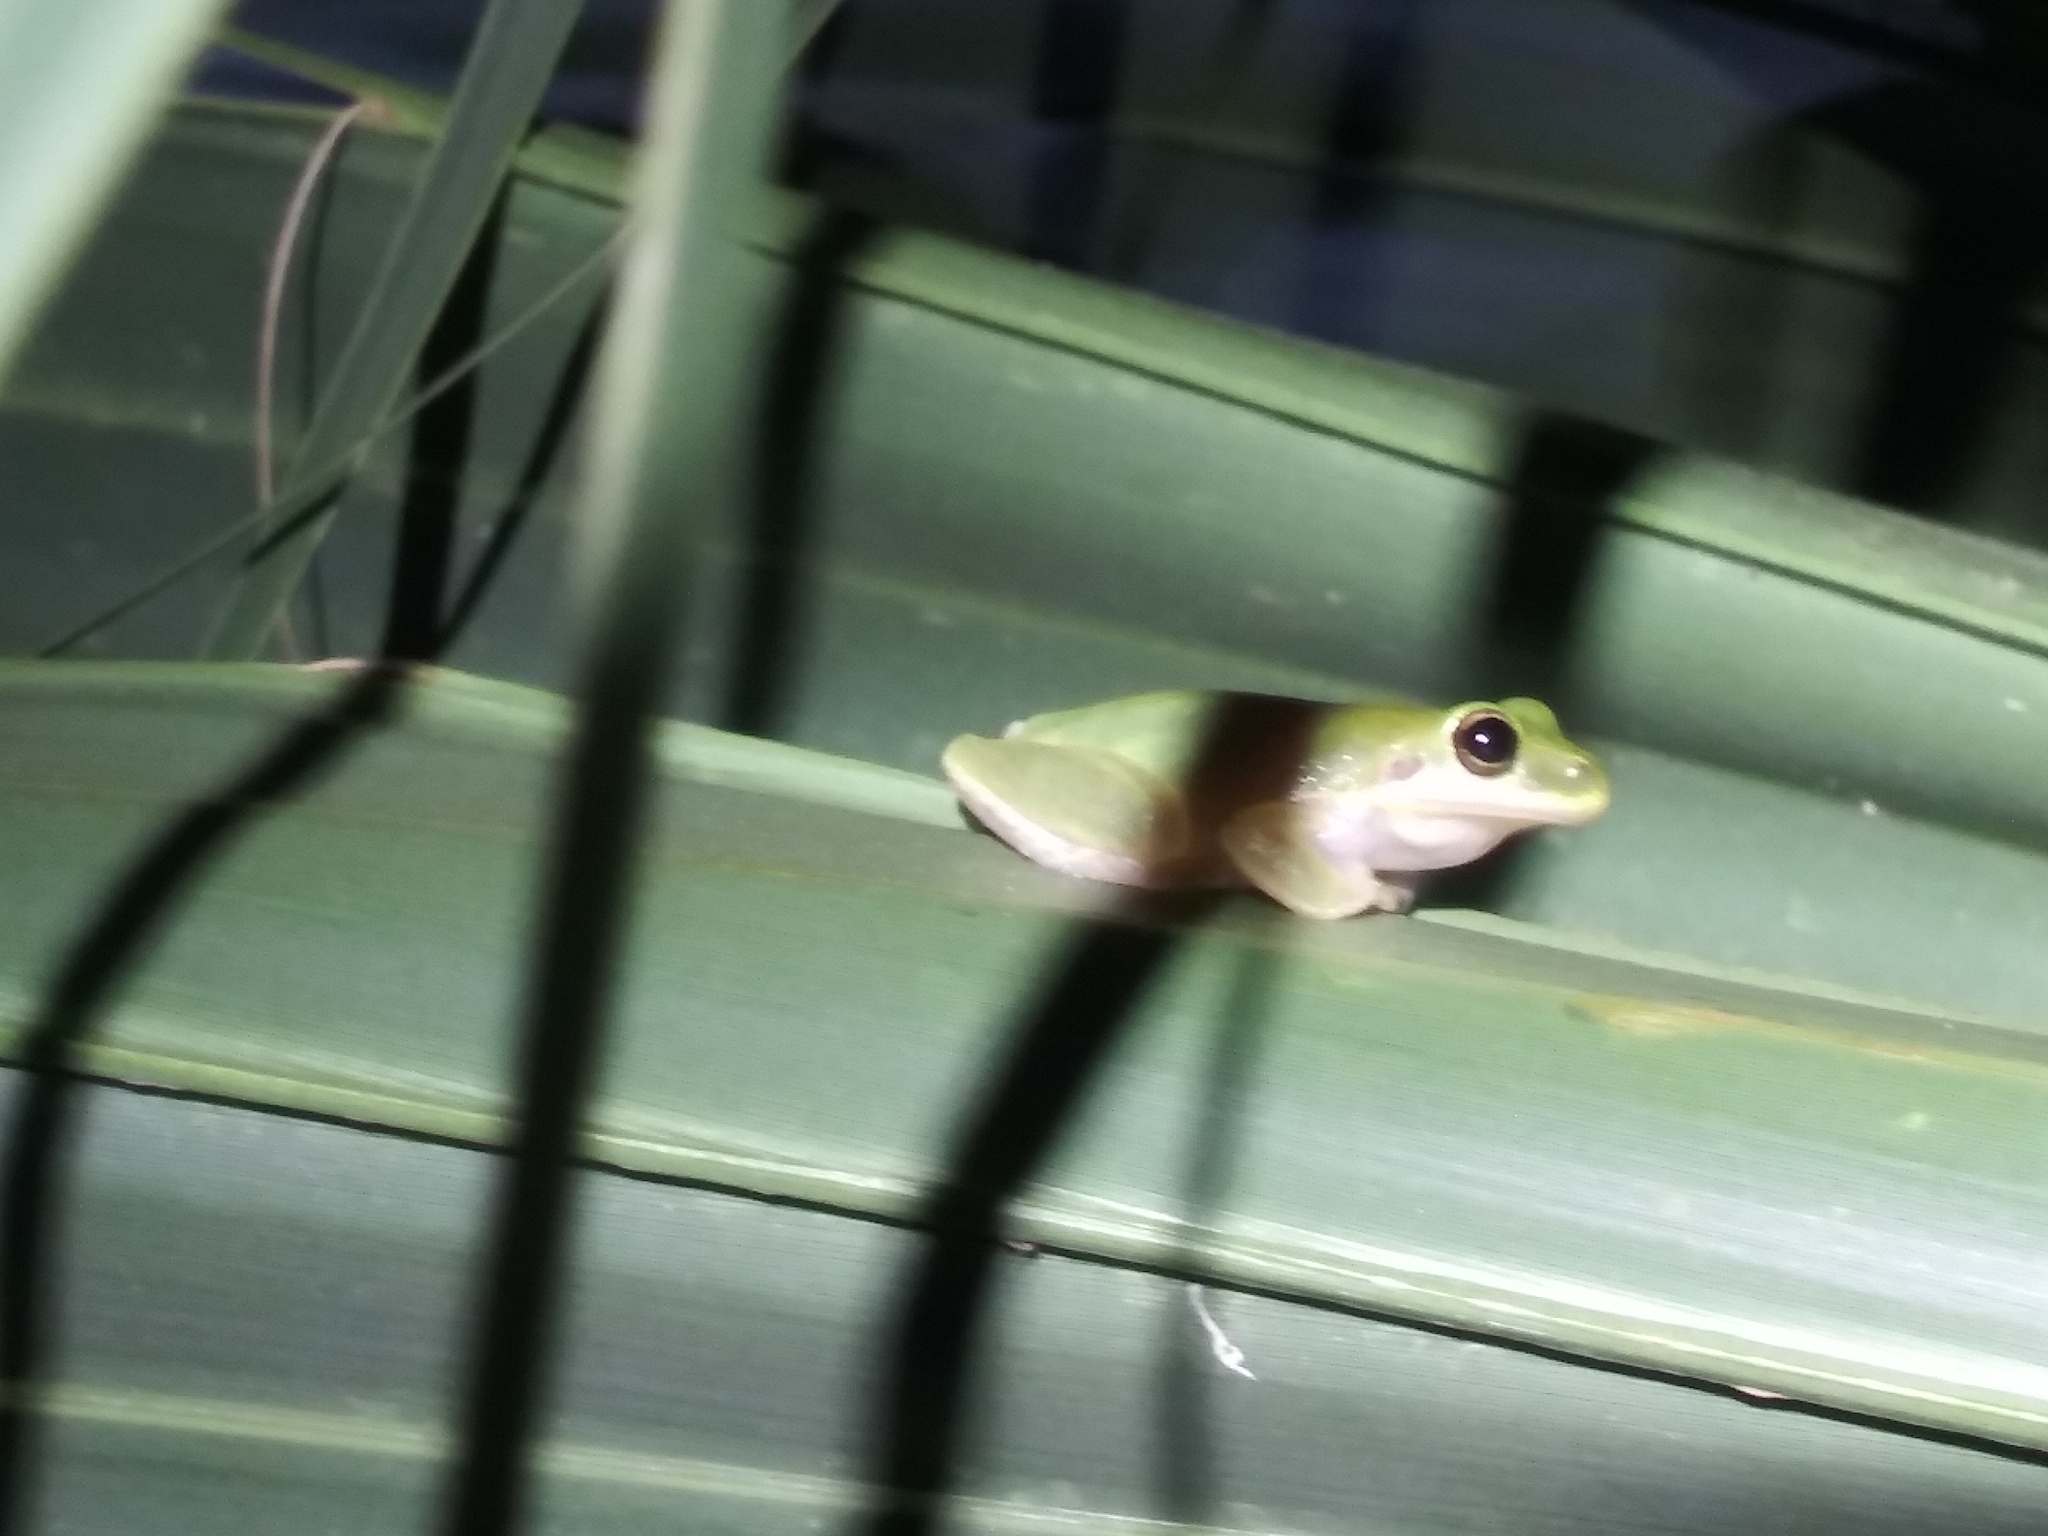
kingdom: Animalia
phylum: Chordata
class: Amphibia
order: Anura
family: Hylidae
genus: Dryophytes
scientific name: Dryophytes squirellus
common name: Squirrel treefrog
